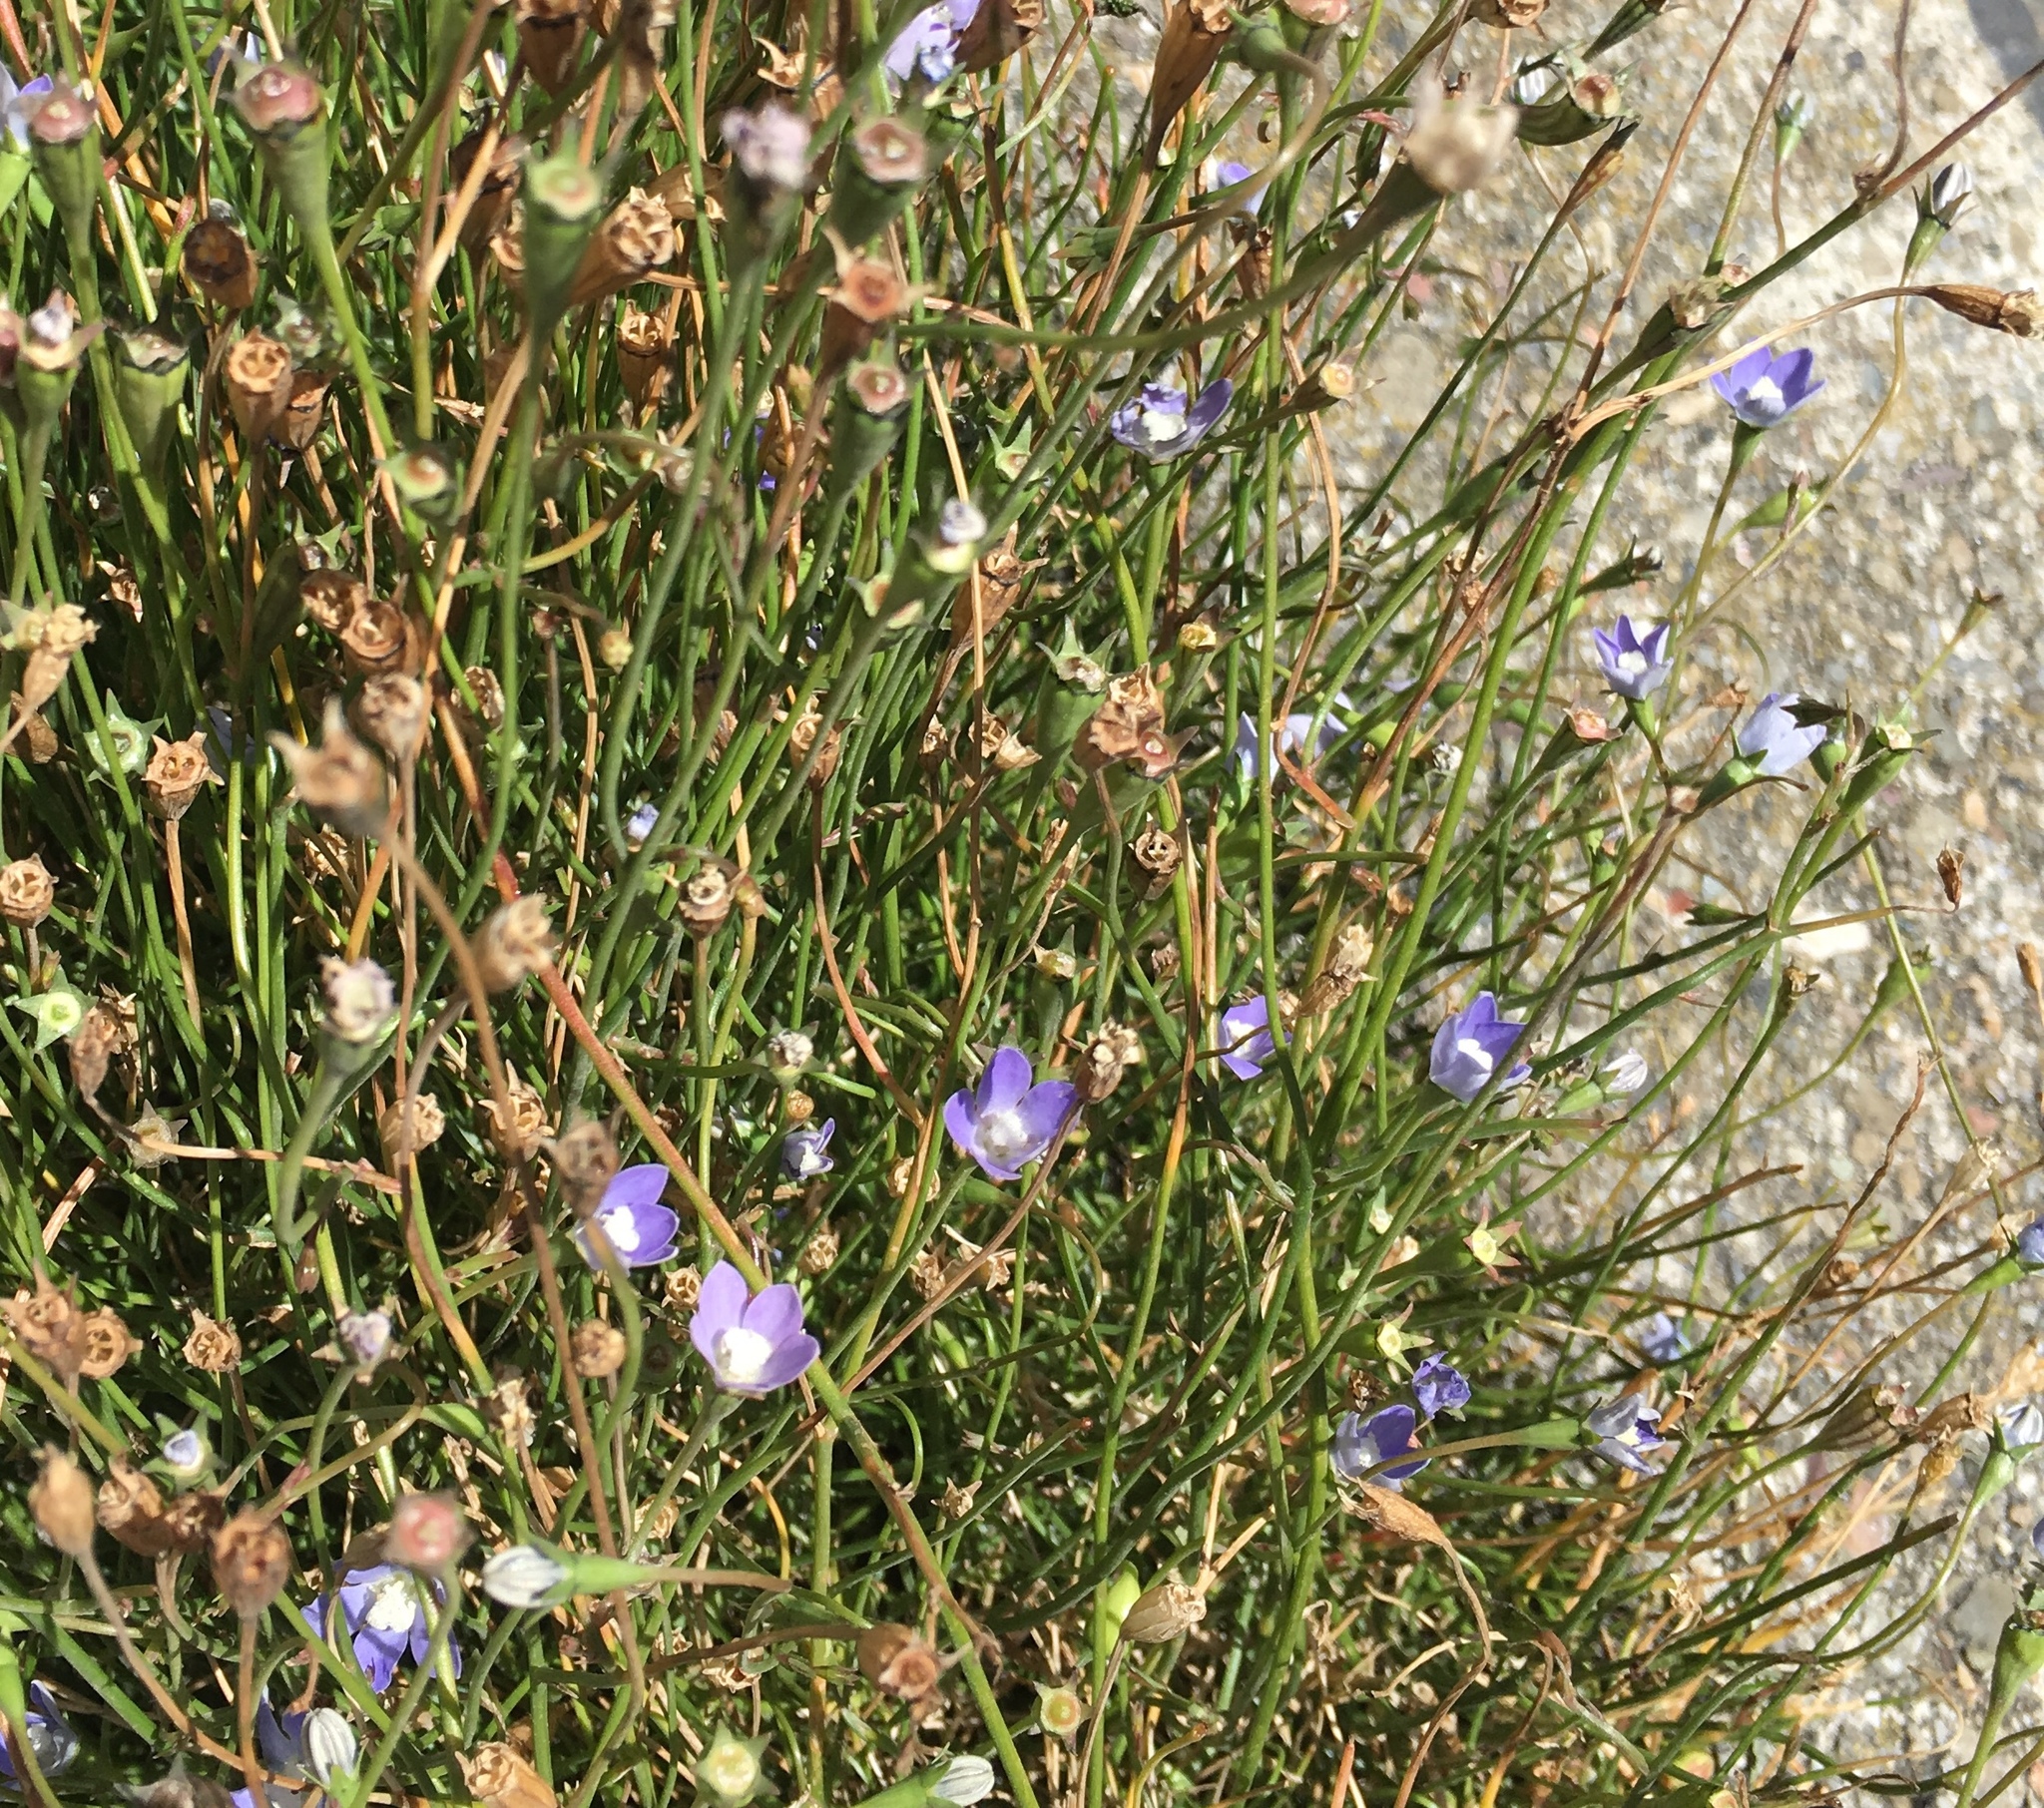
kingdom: Plantae
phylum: Tracheophyta
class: Magnoliopsida
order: Asterales
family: Campanulaceae
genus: Wahlenbergia
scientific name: Wahlenbergia marginata
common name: Southern rockbell
